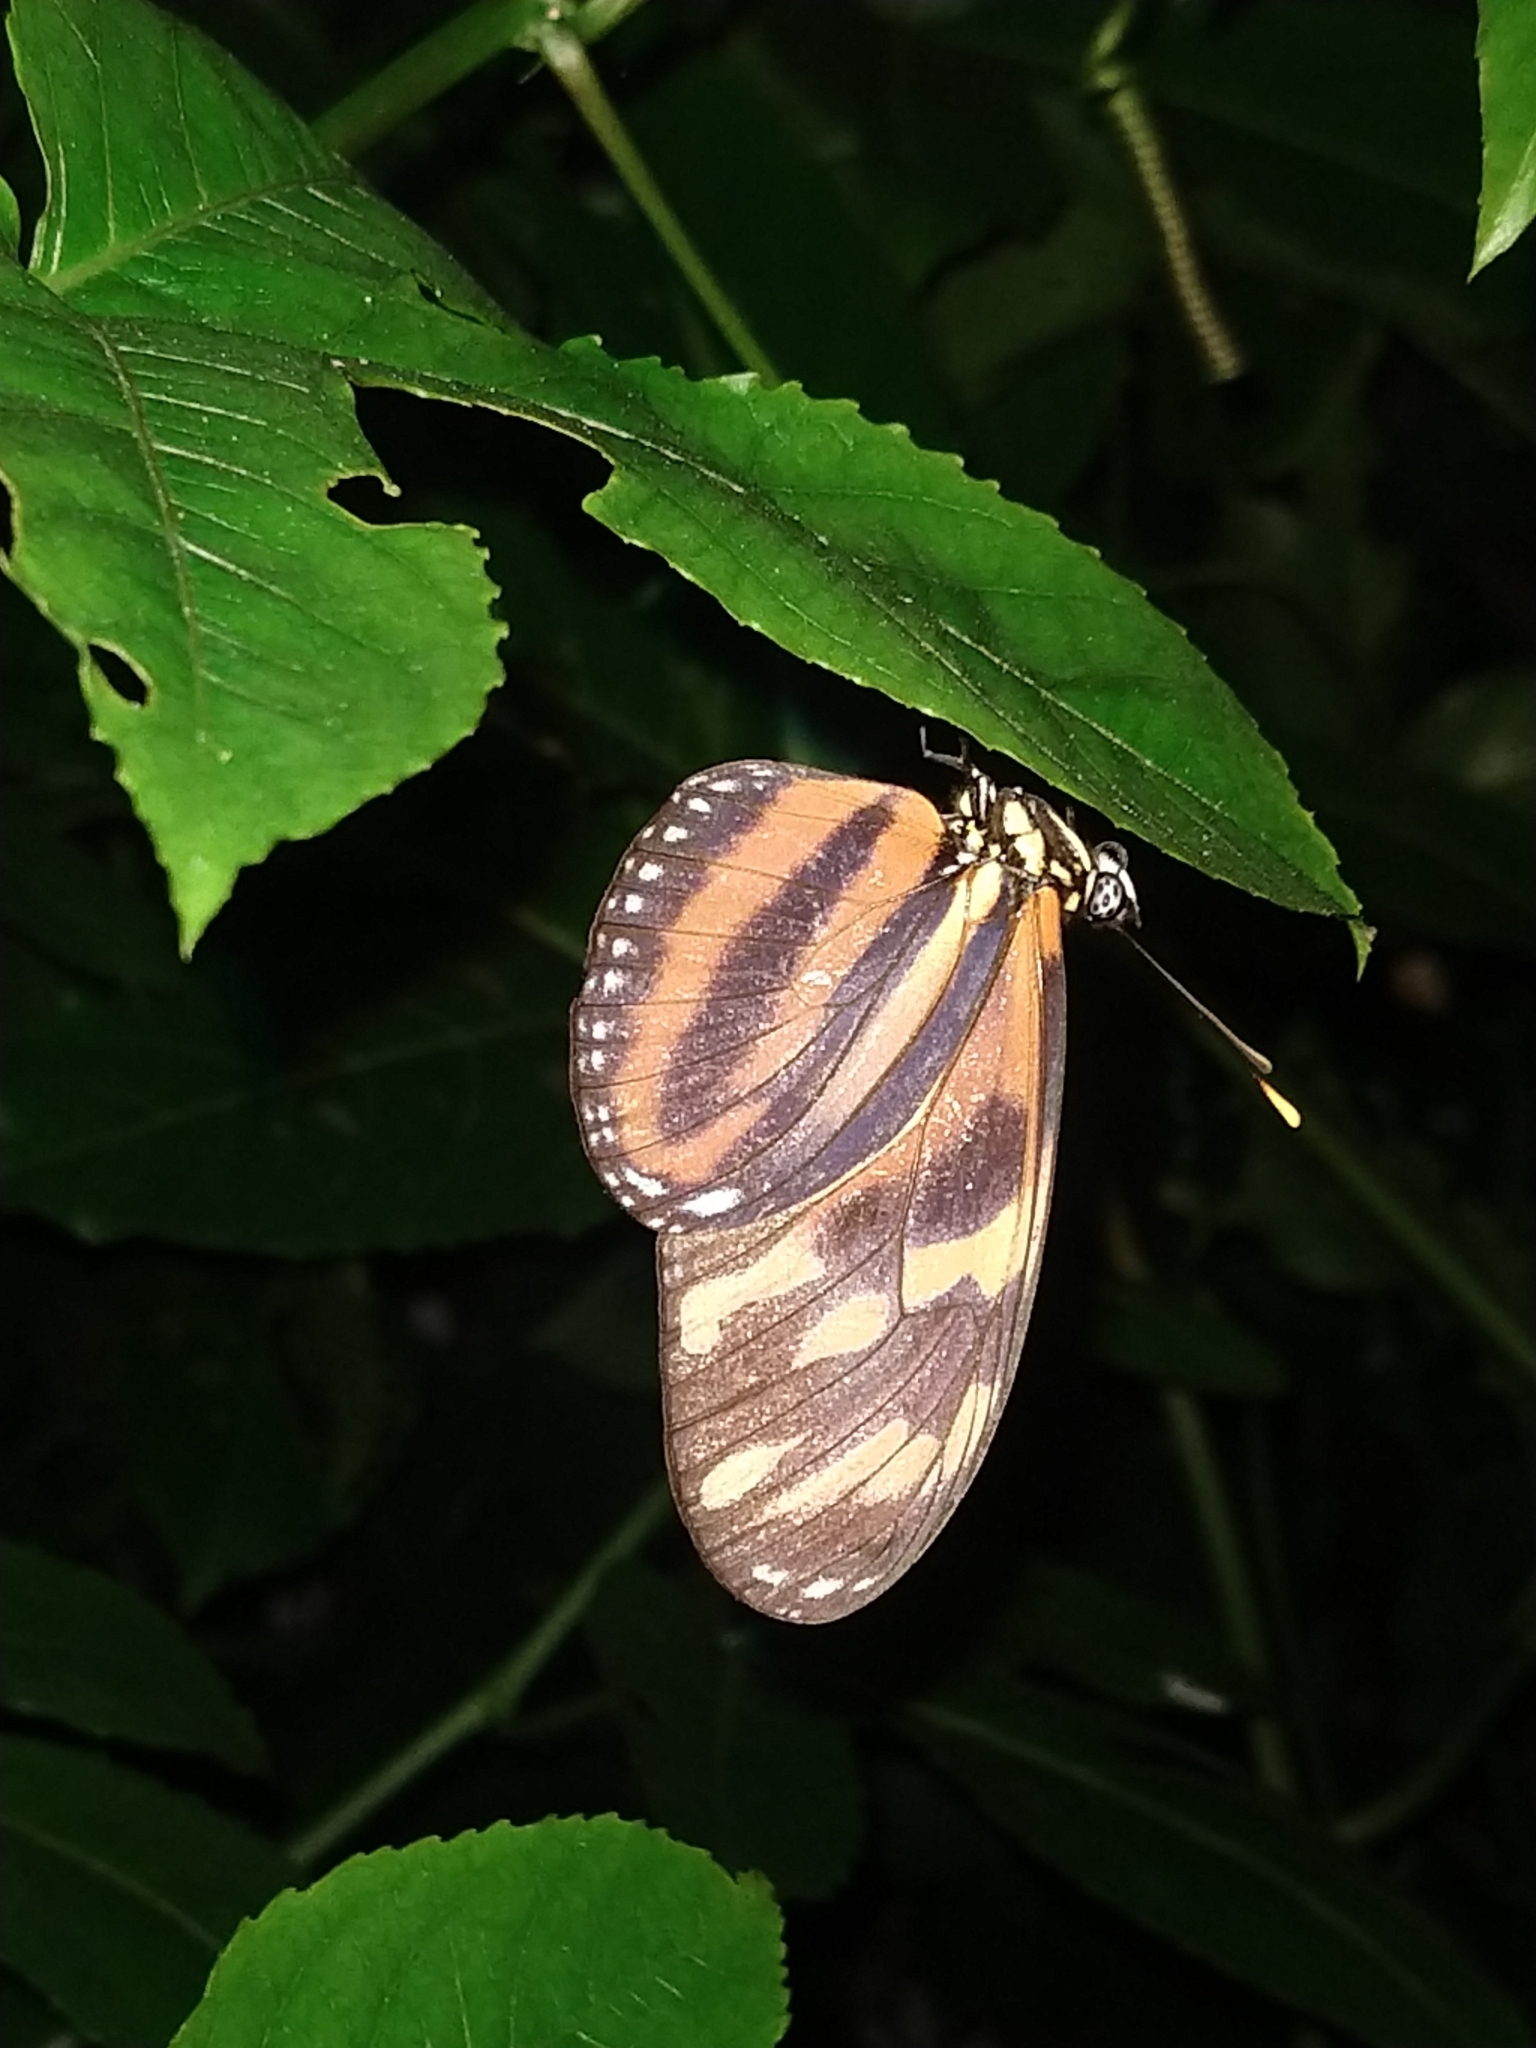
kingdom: Animalia
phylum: Arthropoda
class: Insecta
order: Lepidoptera
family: Nymphalidae
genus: Lycorea
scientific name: Lycorea eva
